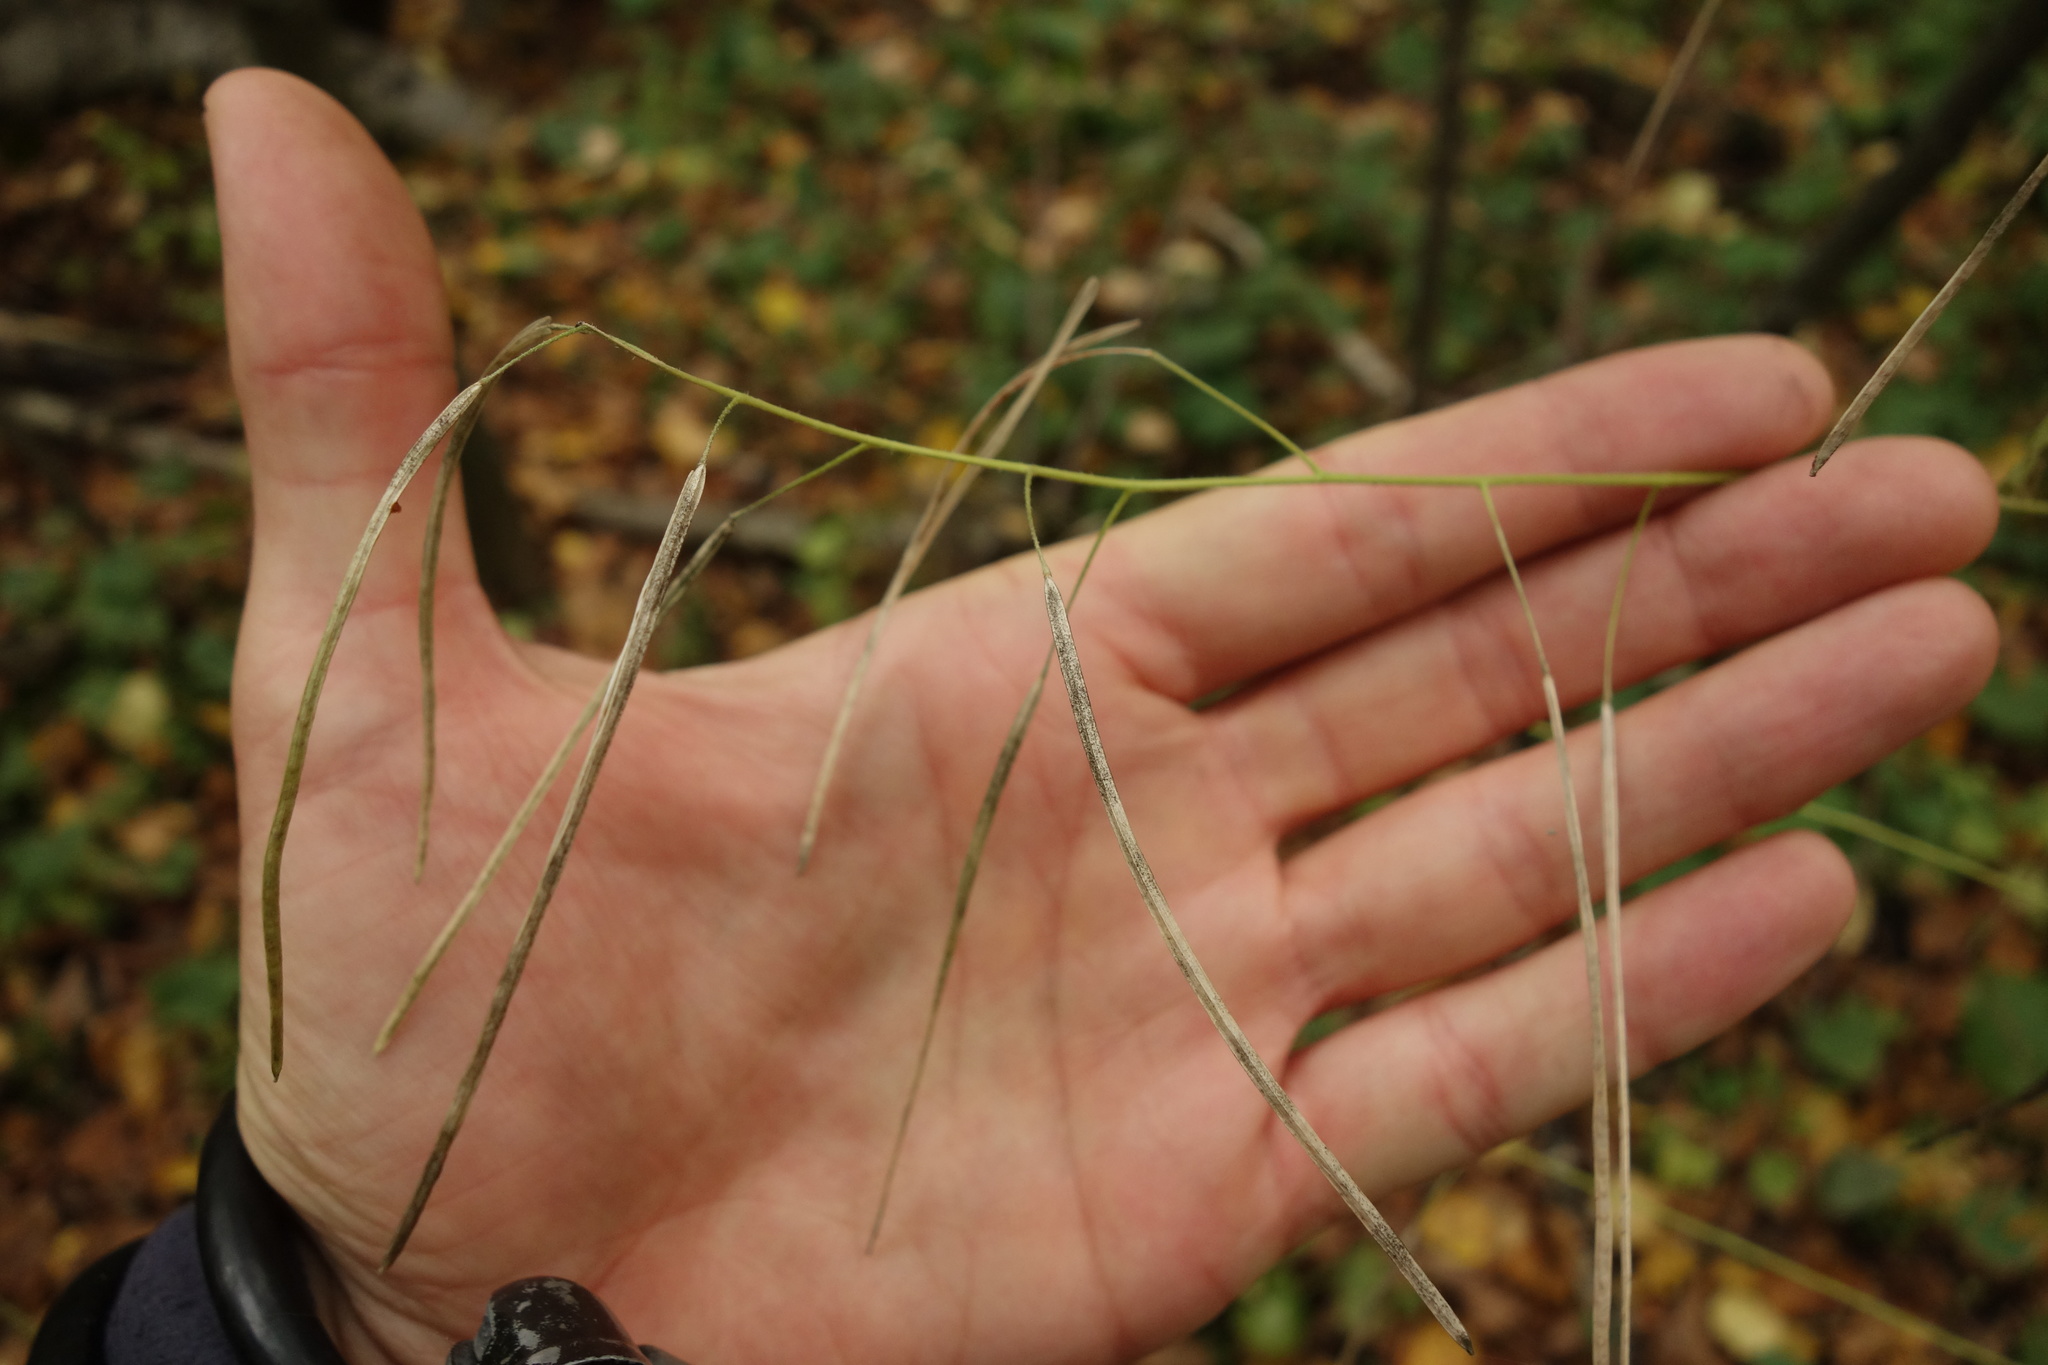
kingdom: Plantae
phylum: Tracheophyta
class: Magnoliopsida
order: Brassicales
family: Brassicaceae
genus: Catolobus
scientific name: Catolobus pendulus
